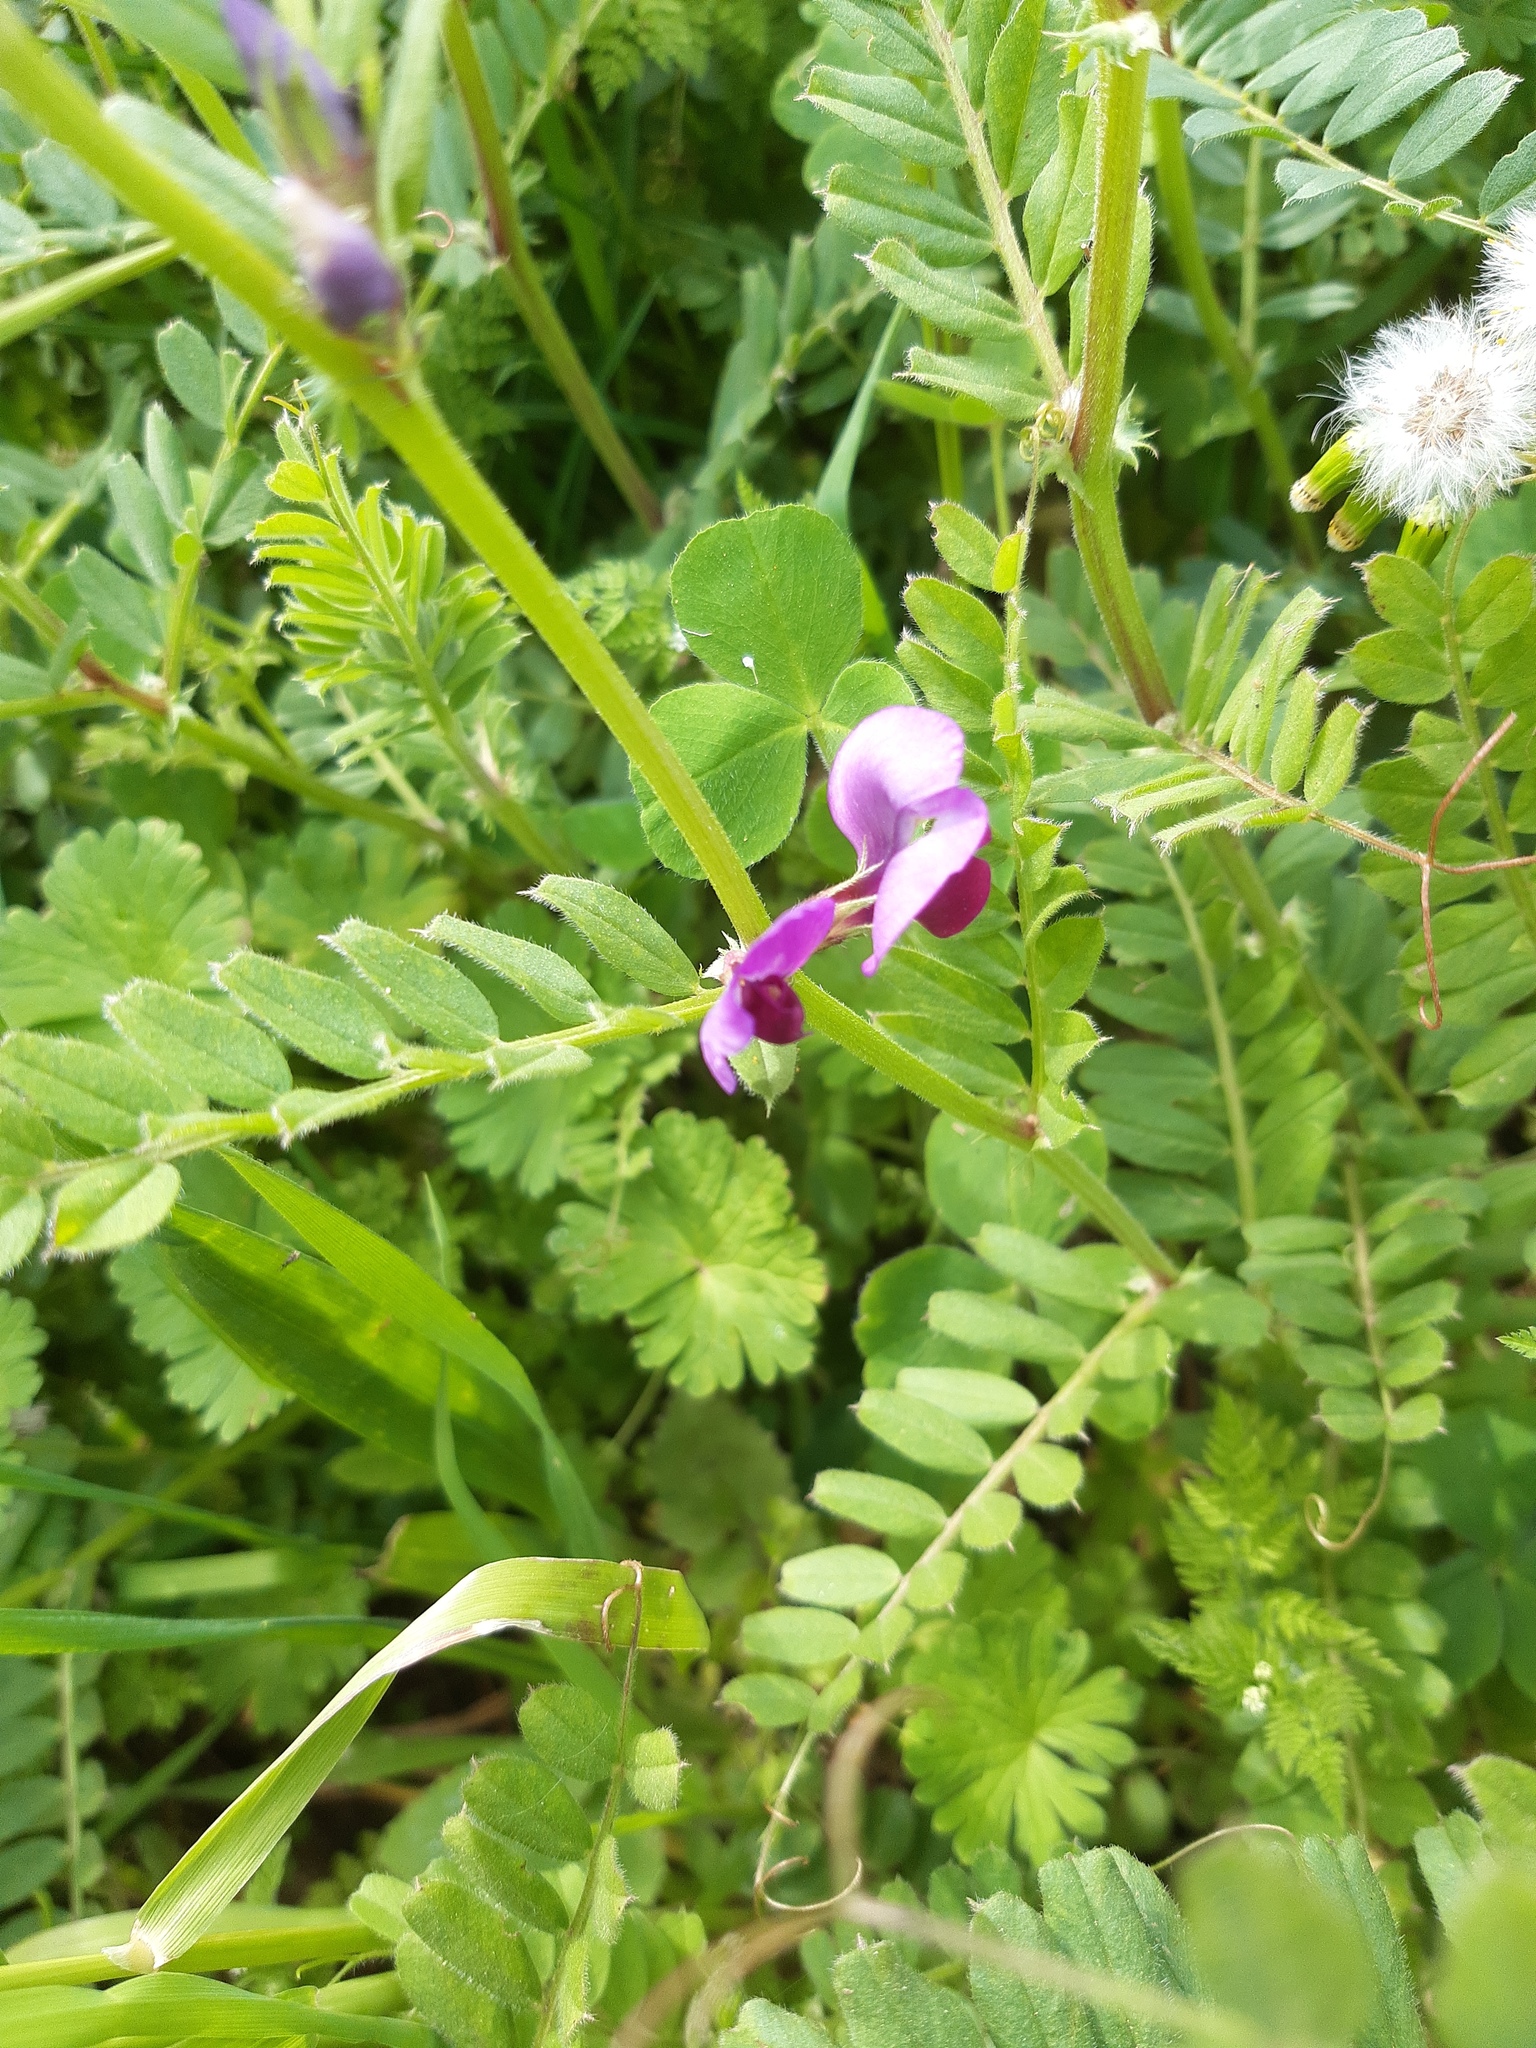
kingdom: Plantae
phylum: Tracheophyta
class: Magnoliopsida
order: Fabales
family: Fabaceae
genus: Vicia
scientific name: Vicia sativa
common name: Garden vetch
